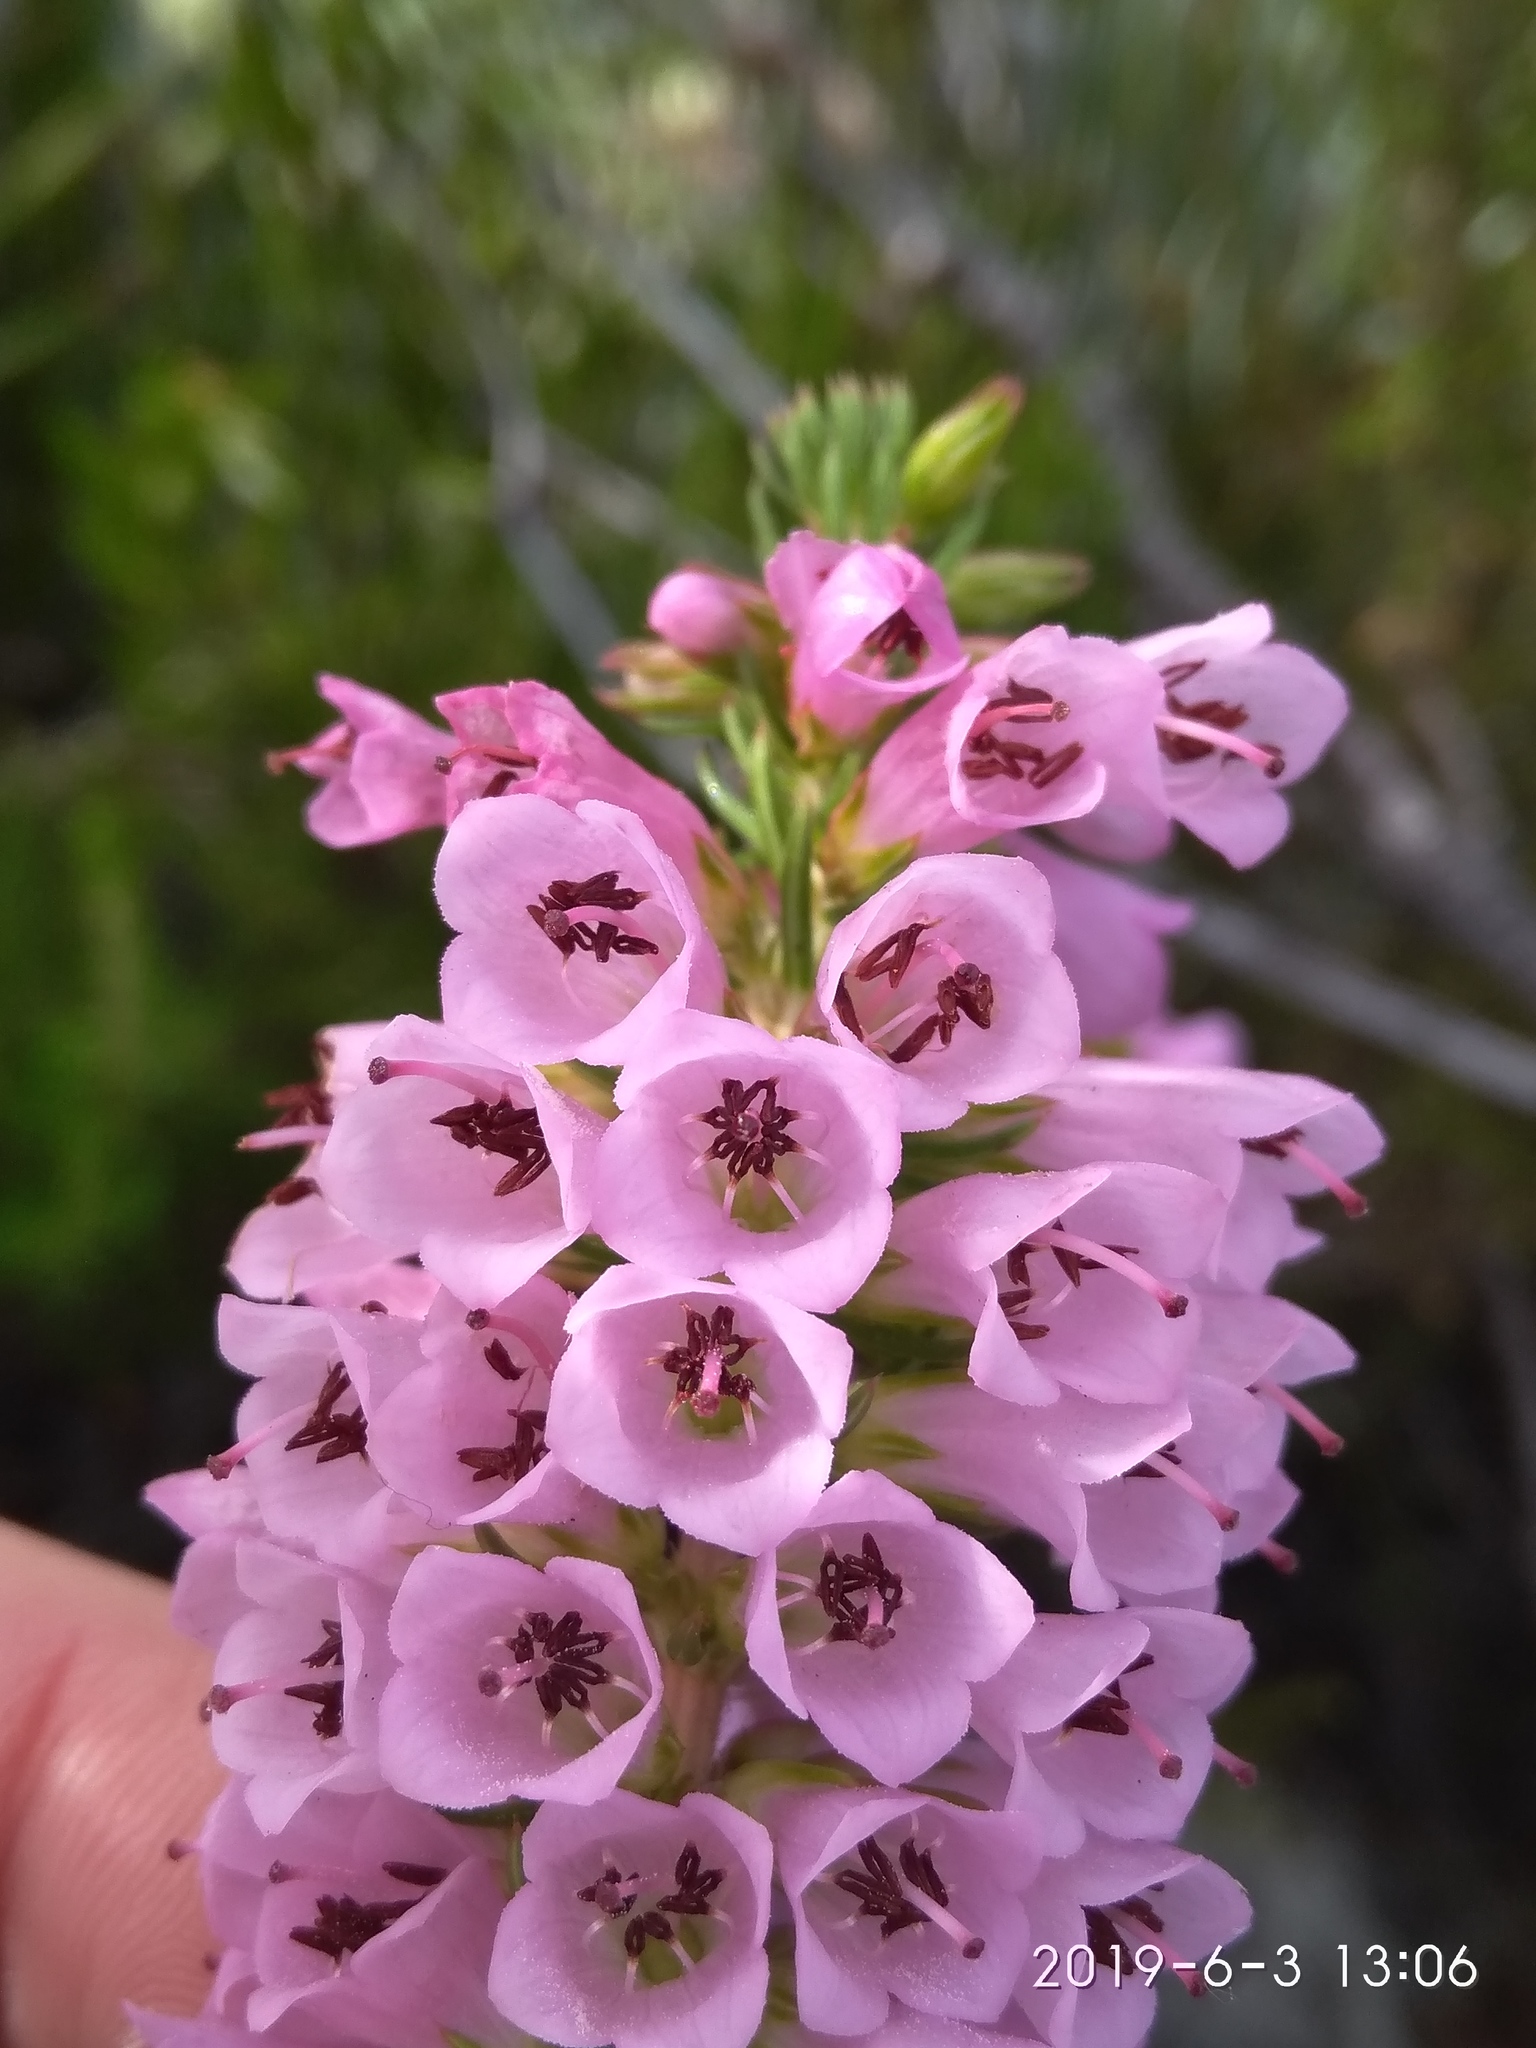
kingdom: Plantae
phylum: Tracheophyta
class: Magnoliopsida
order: Ericales
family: Ericaceae
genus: Erica
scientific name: Erica abietina
